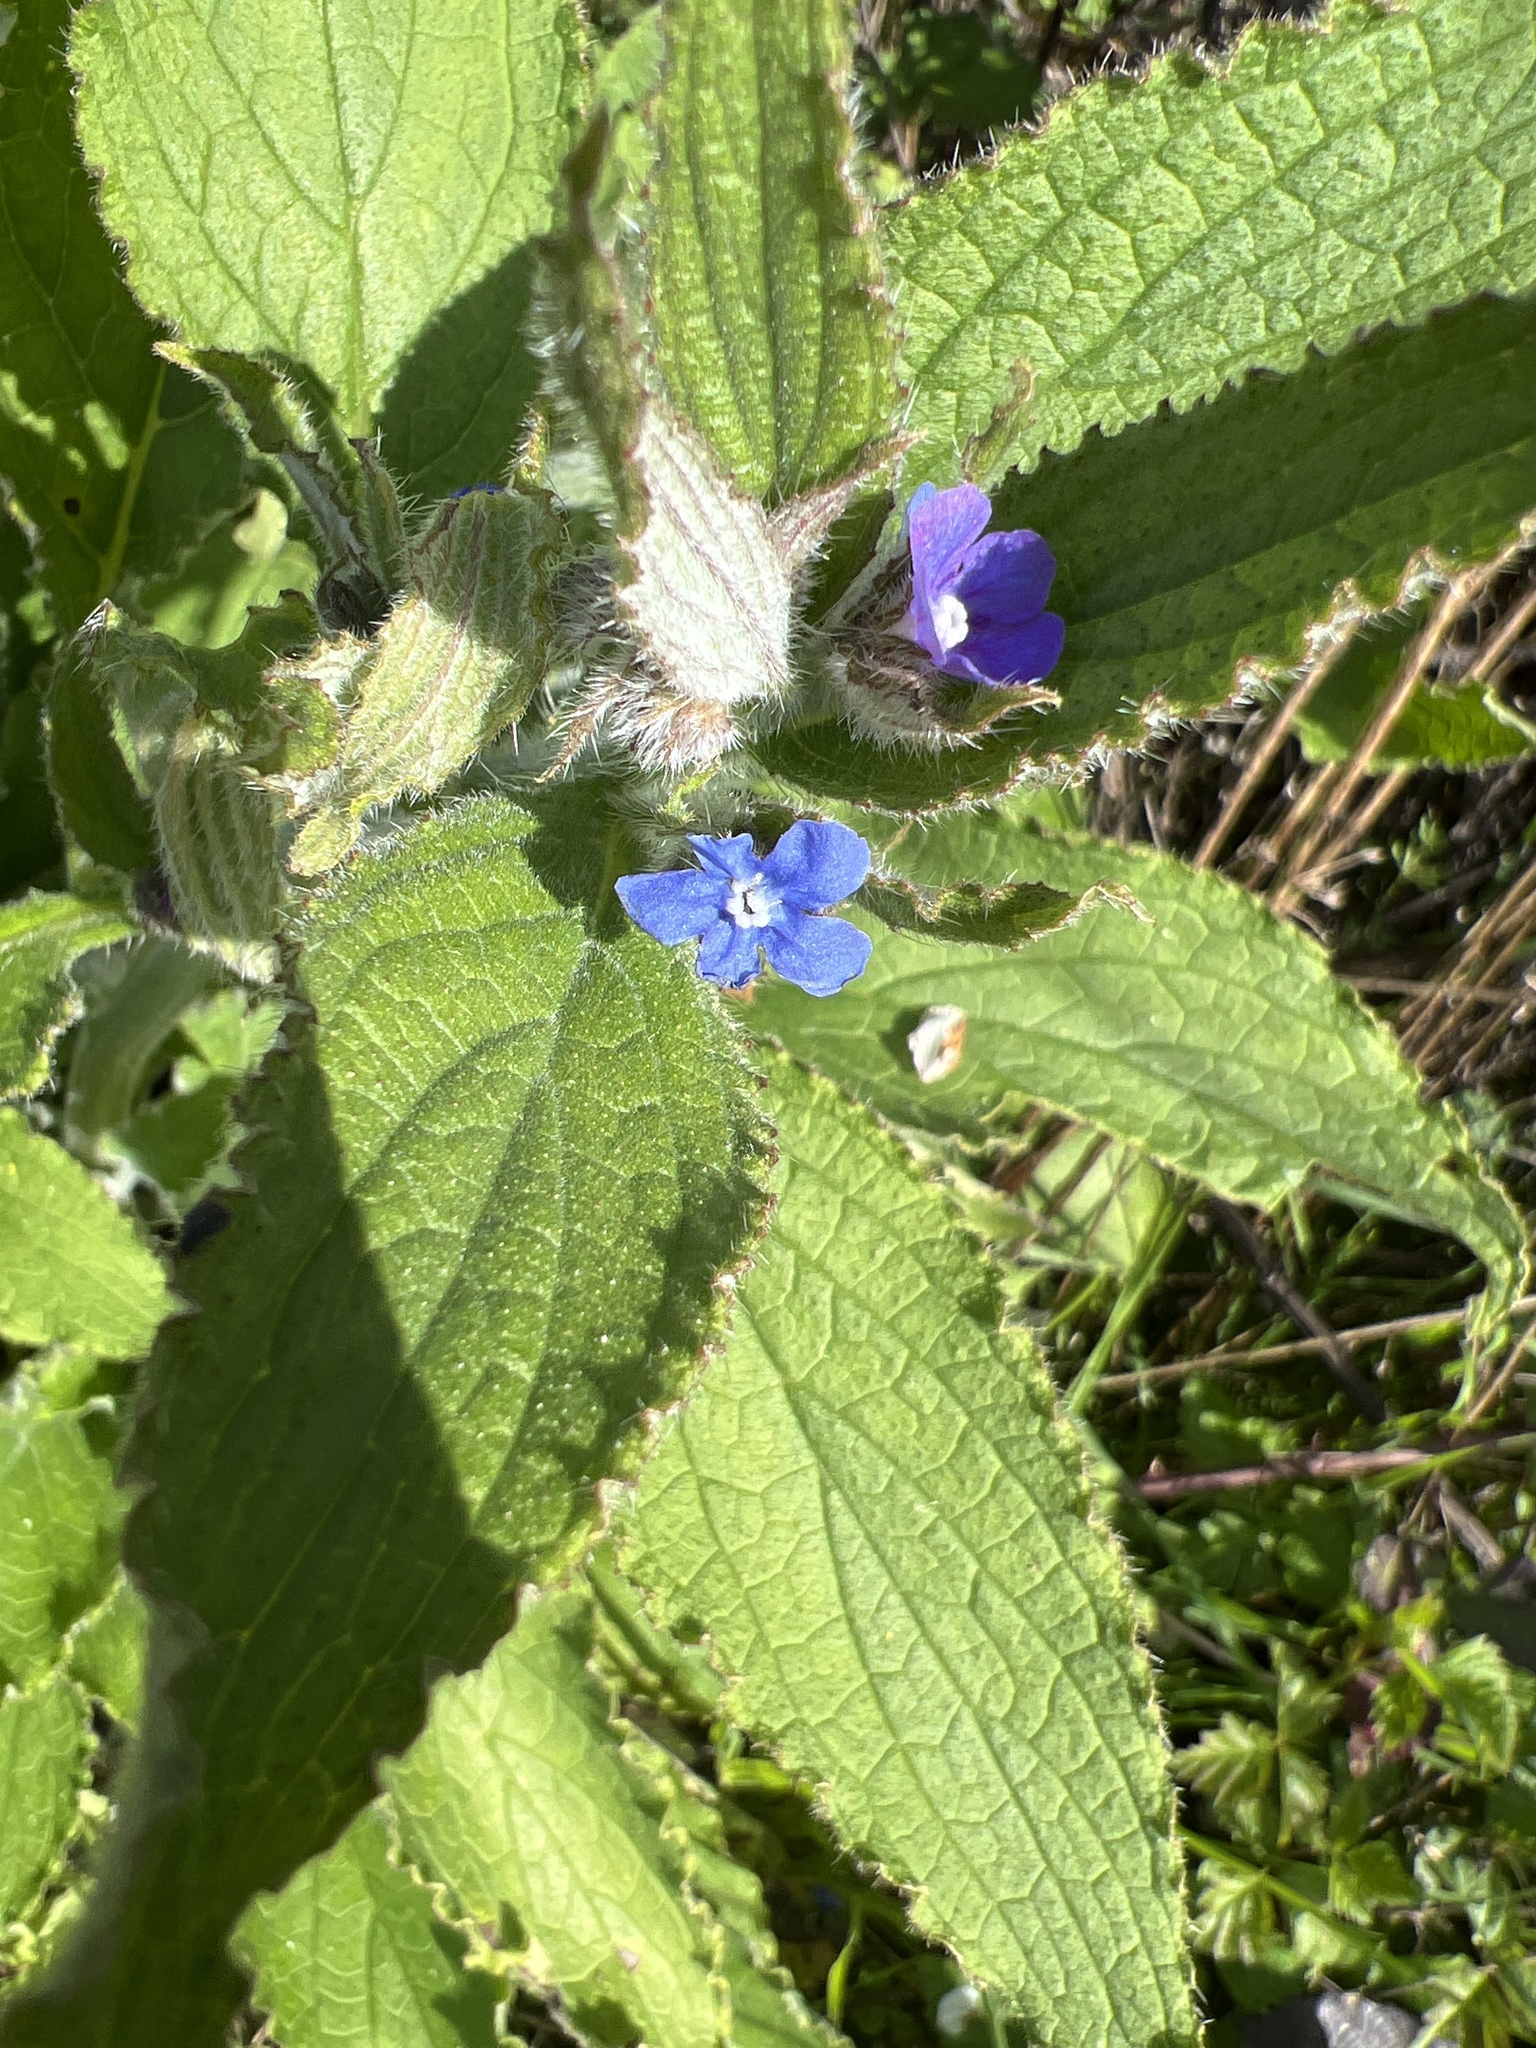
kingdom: Plantae
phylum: Tracheophyta
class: Magnoliopsida
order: Boraginales
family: Boraginaceae
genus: Pentaglottis
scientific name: Pentaglottis sempervirens
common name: Green alkanet
